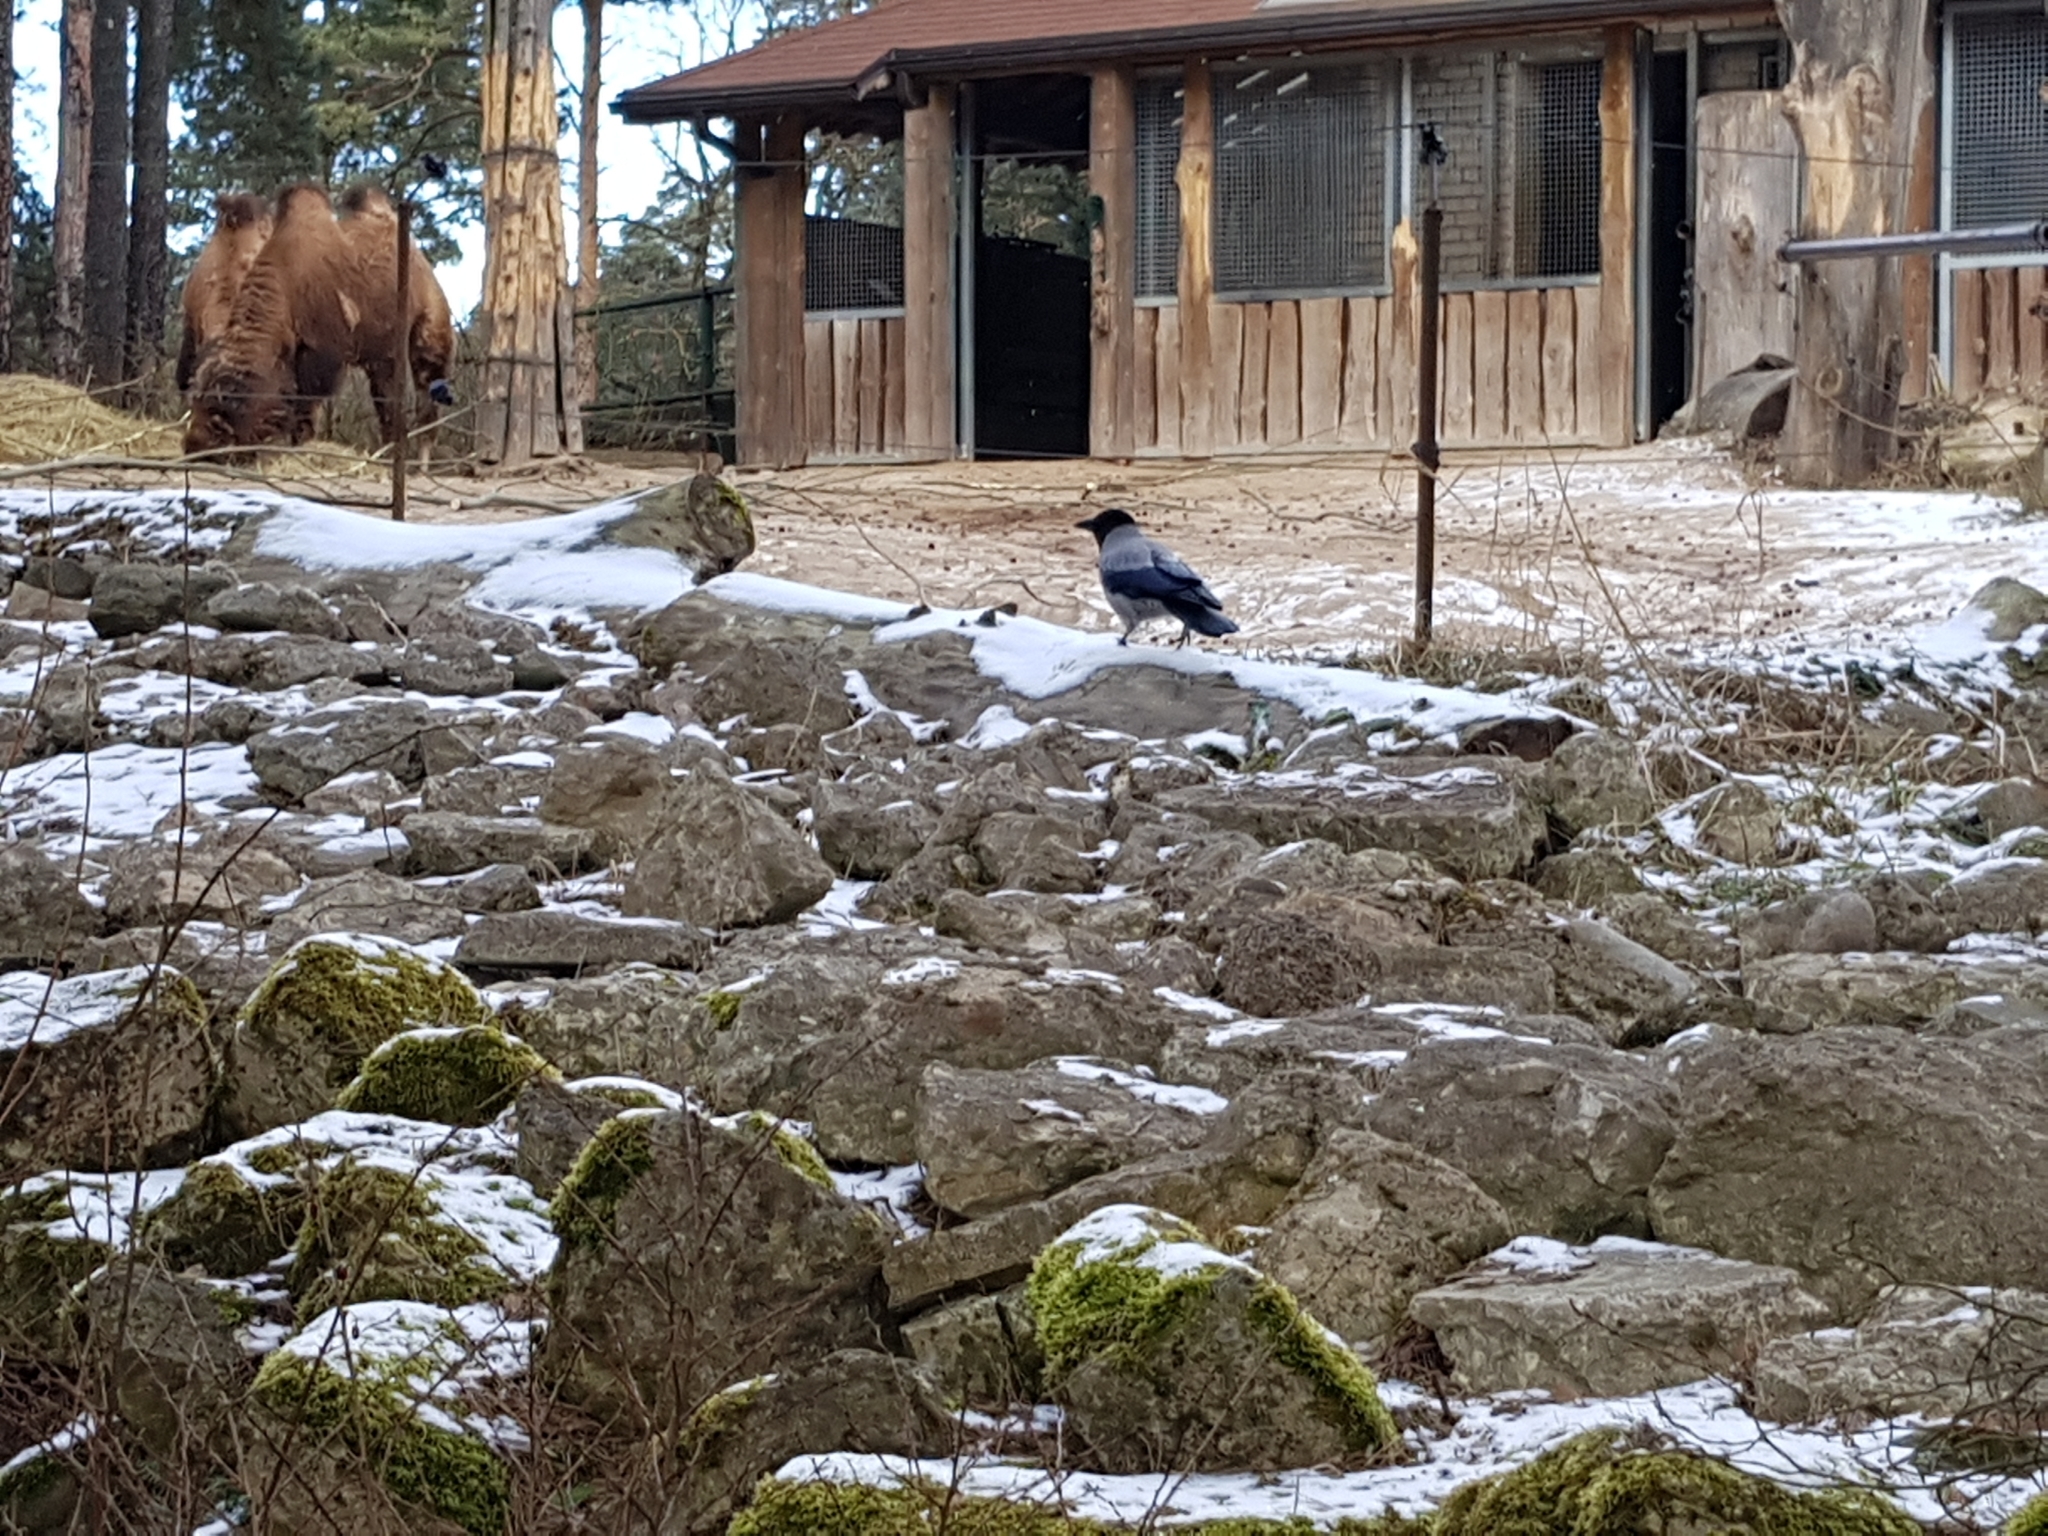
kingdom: Animalia
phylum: Chordata
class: Aves
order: Passeriformes
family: Corvidae
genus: Corvus
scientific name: Corvus cornix
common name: Hooded crow
